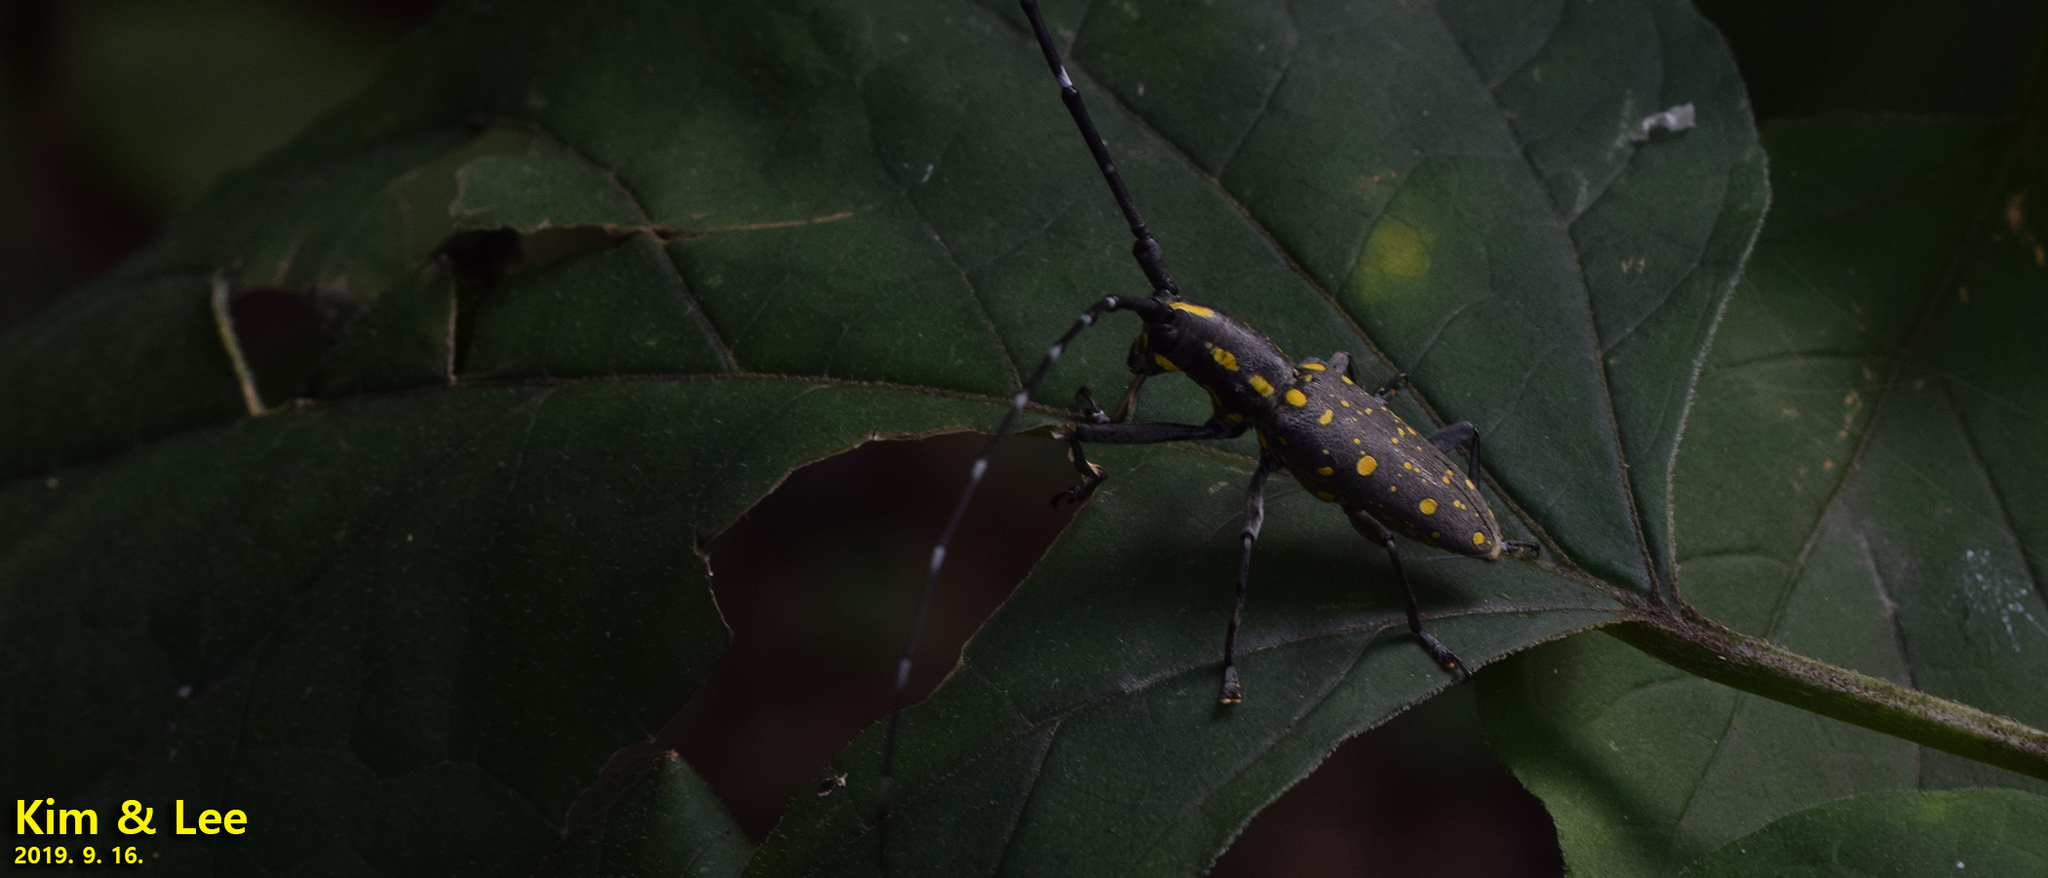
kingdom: Animalia
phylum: Arthropoda
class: Insecta
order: Coleoptera
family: Cerambycidae
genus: Psacothea
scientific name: Psacothea hilaris
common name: Yellow-spotted longicorn beetle
